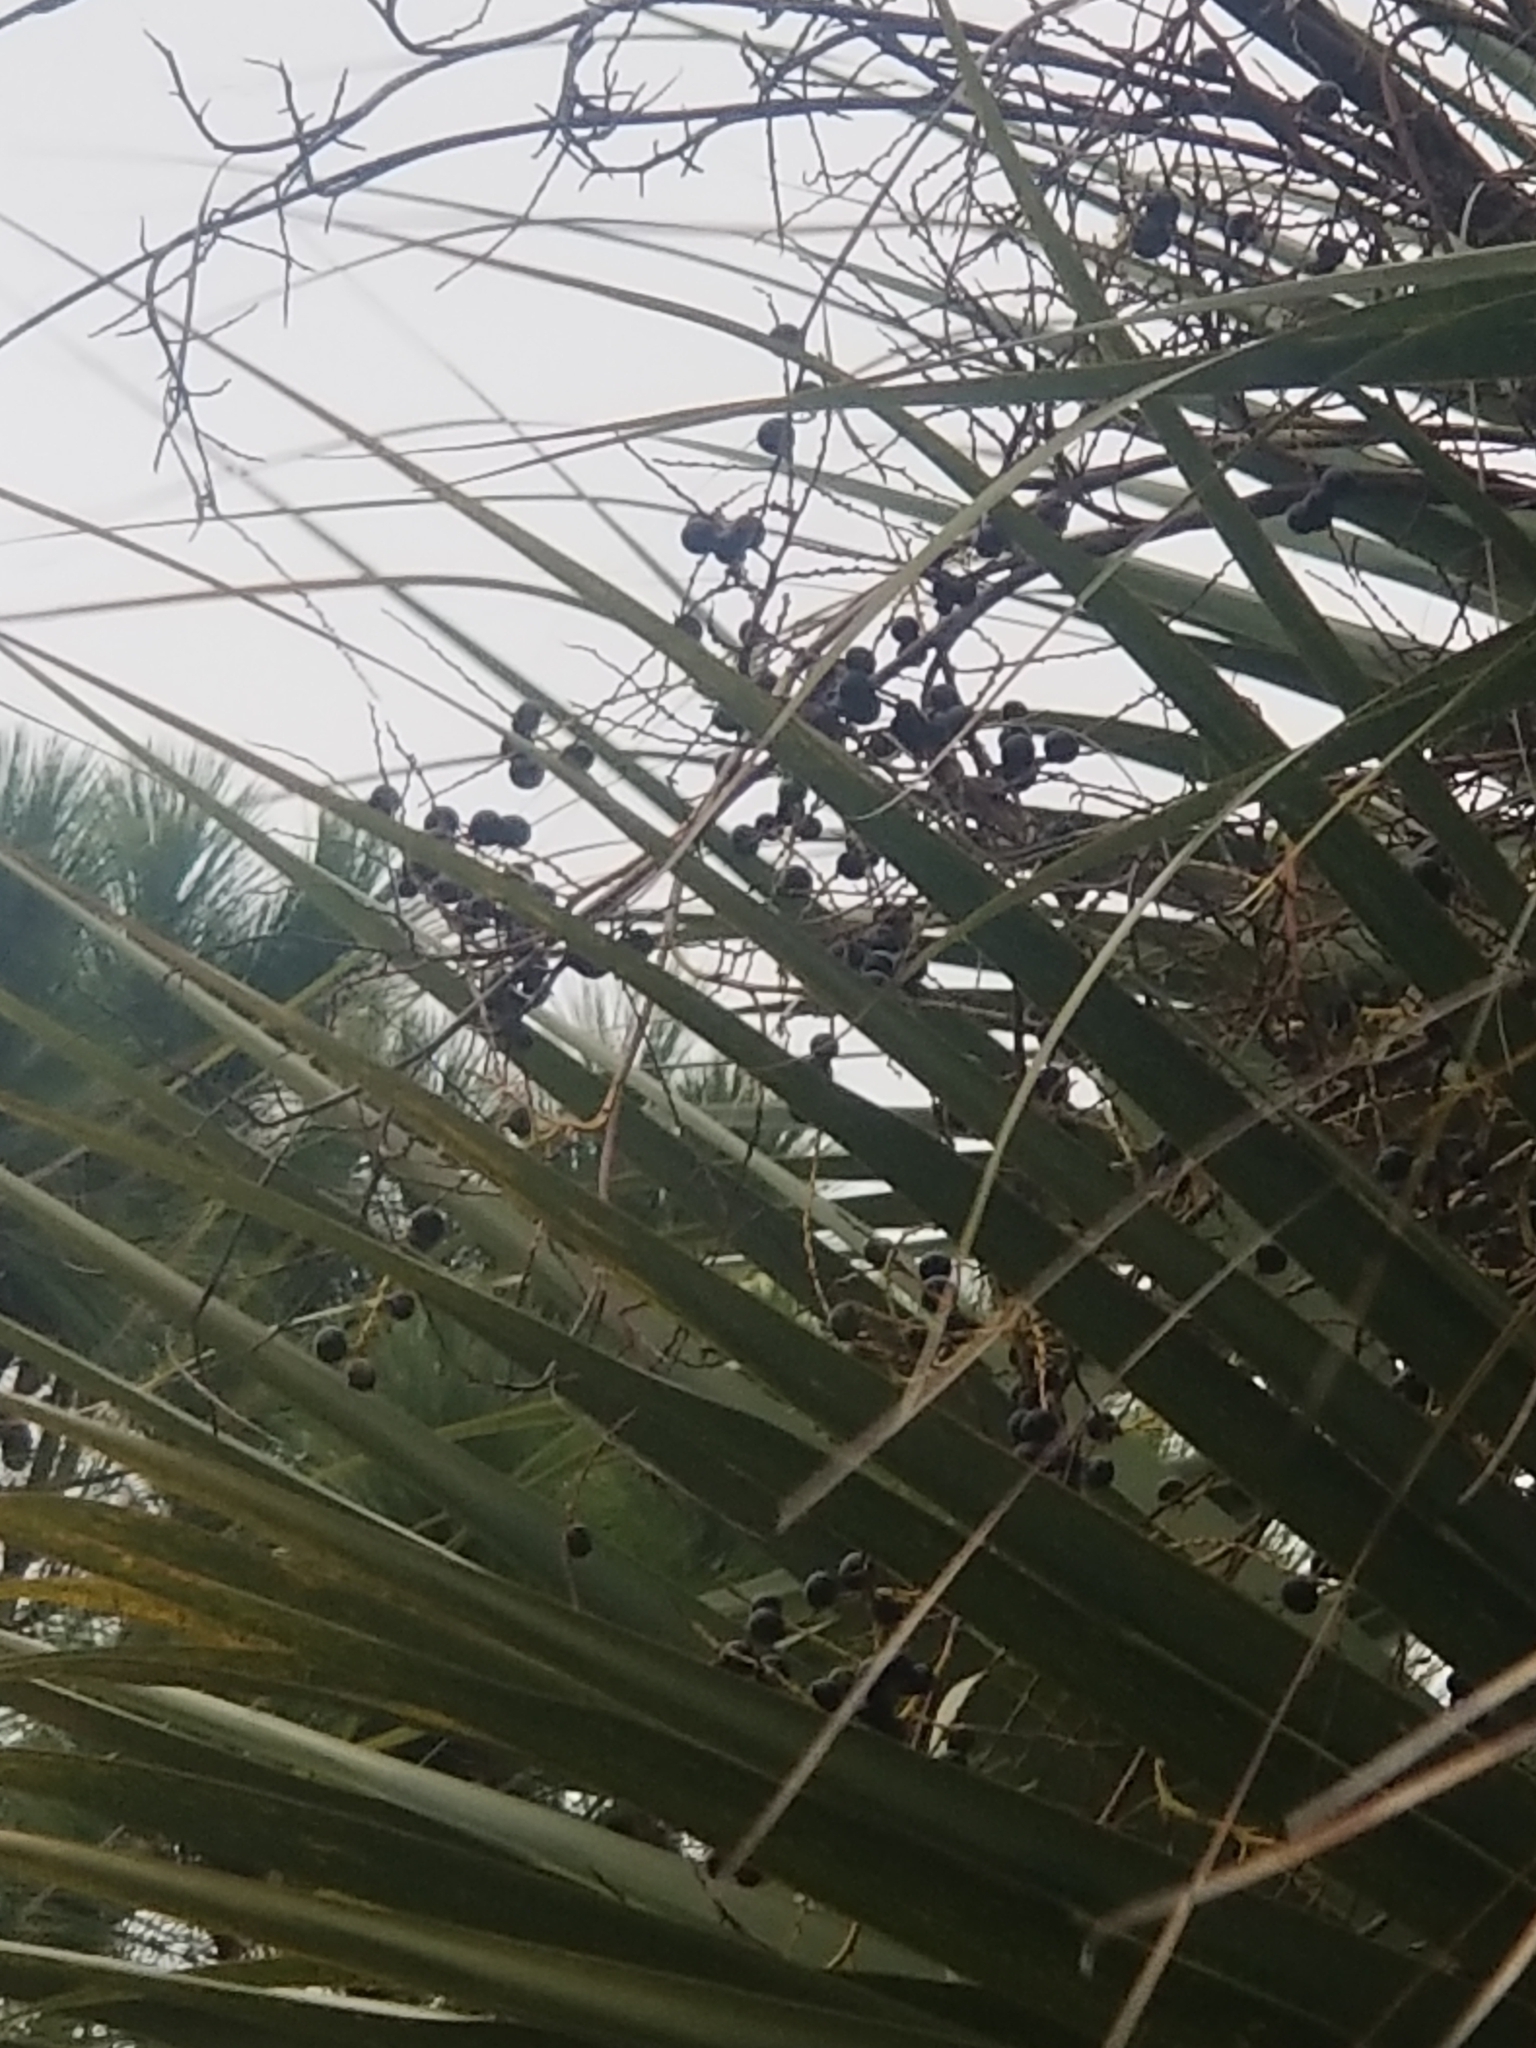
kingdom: Plantae
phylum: Tracheophyta
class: Liliopsida
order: Arecales
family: Arecaceae
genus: Sabal
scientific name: Sabal palmetto
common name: Blue palmetto
